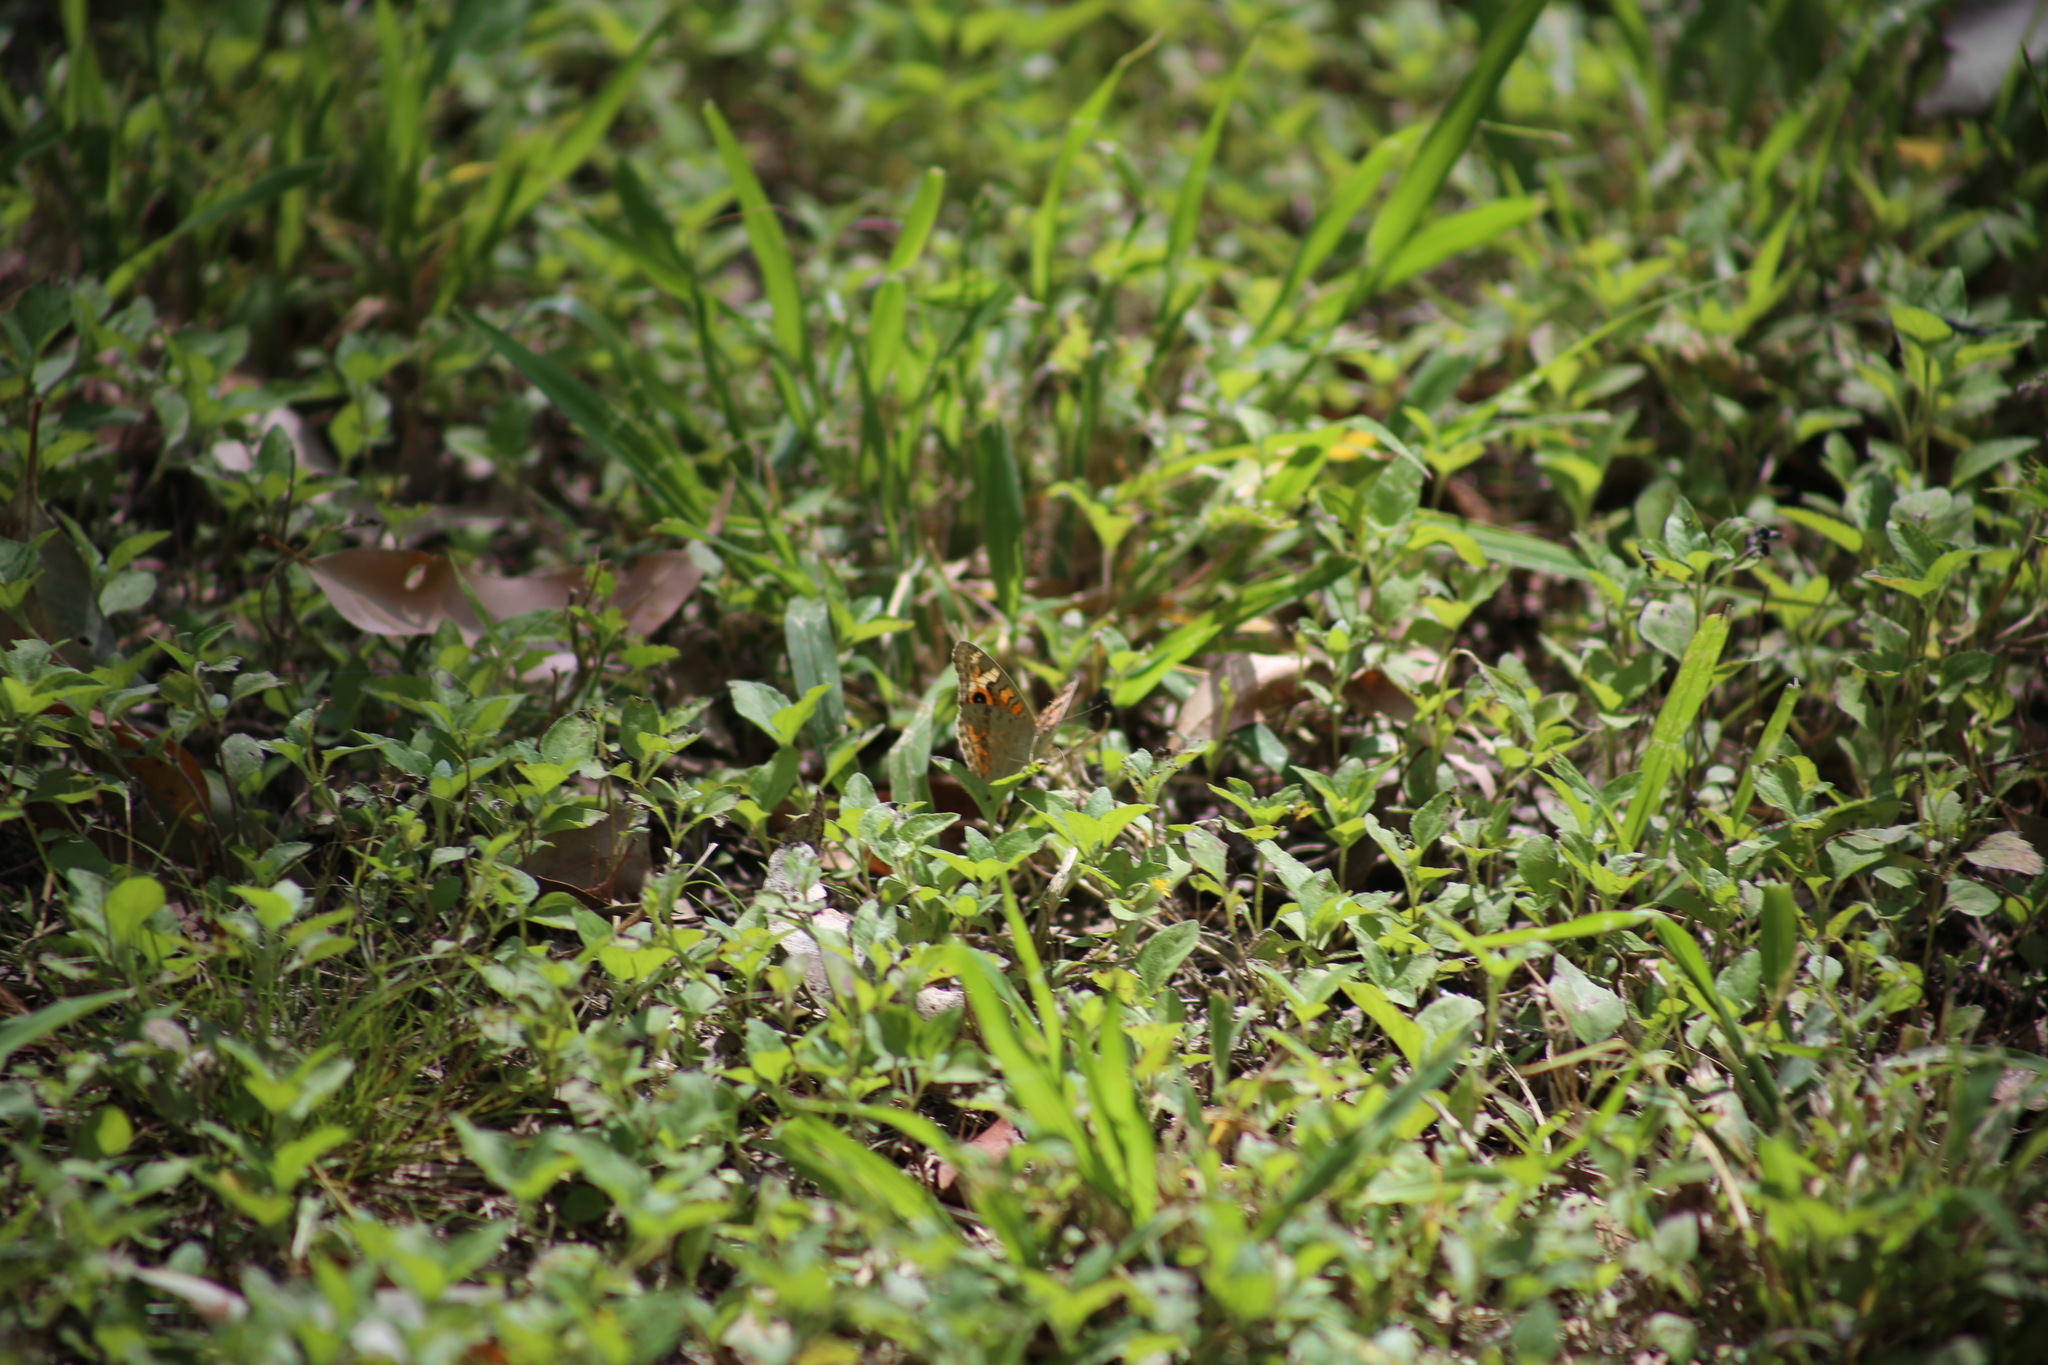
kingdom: Animalia
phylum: Arthropoda
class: Insecta
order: Lepidoptera
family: Nymphalidae
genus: Junonia
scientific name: Junonia villida
